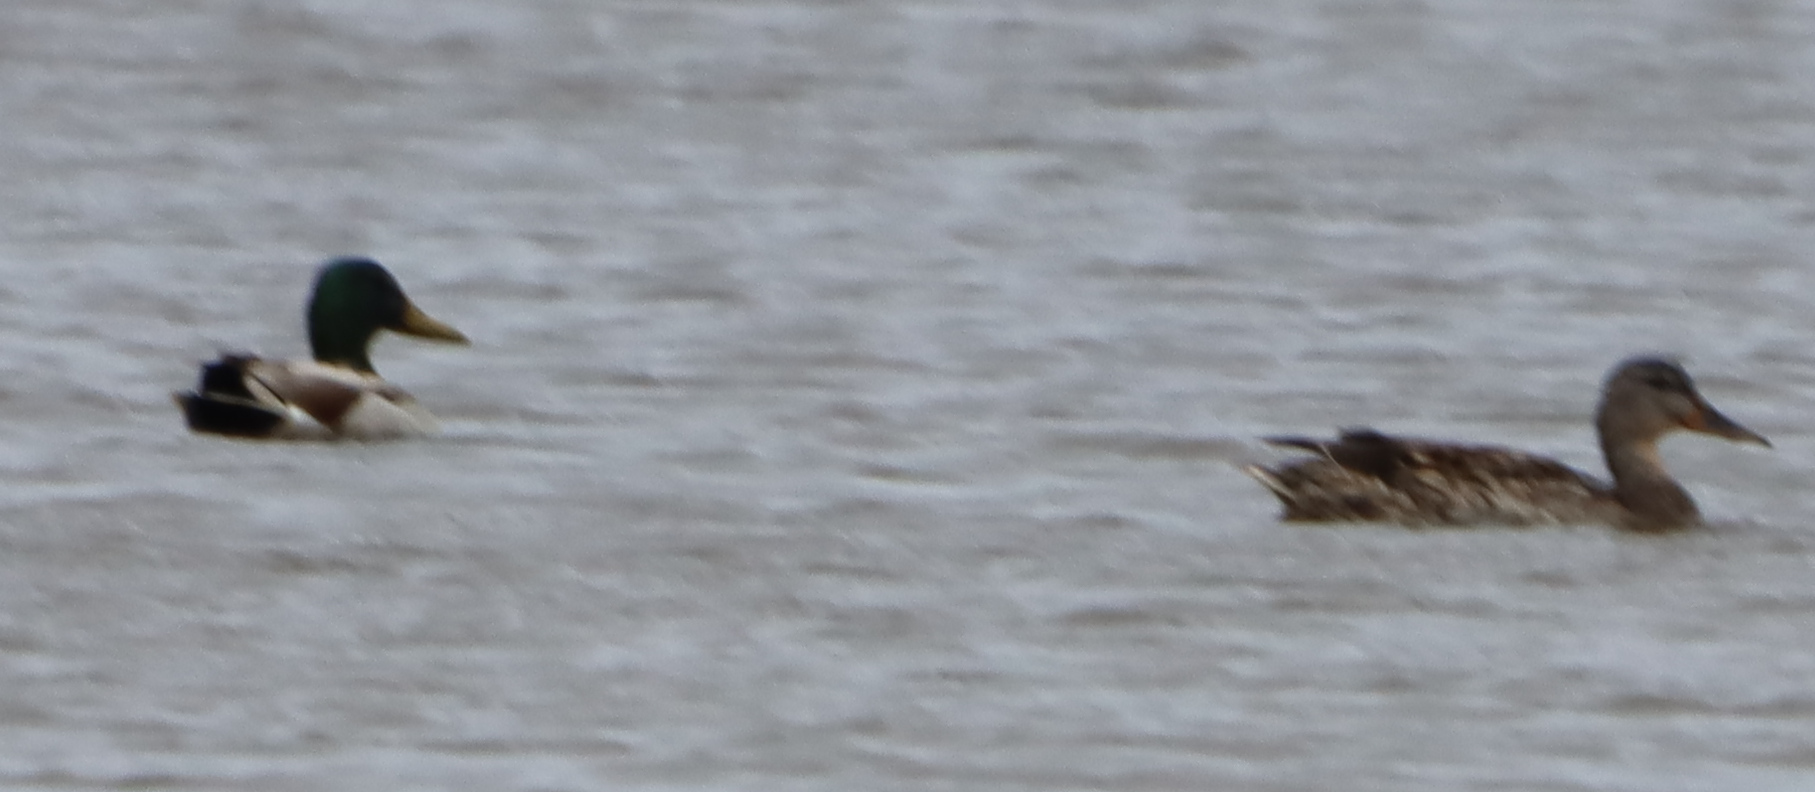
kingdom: Animalia
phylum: Chordata
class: Aves
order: Anseriformes
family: Anatidae
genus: Anas
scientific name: Anas platyrhynchos
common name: Mallard
